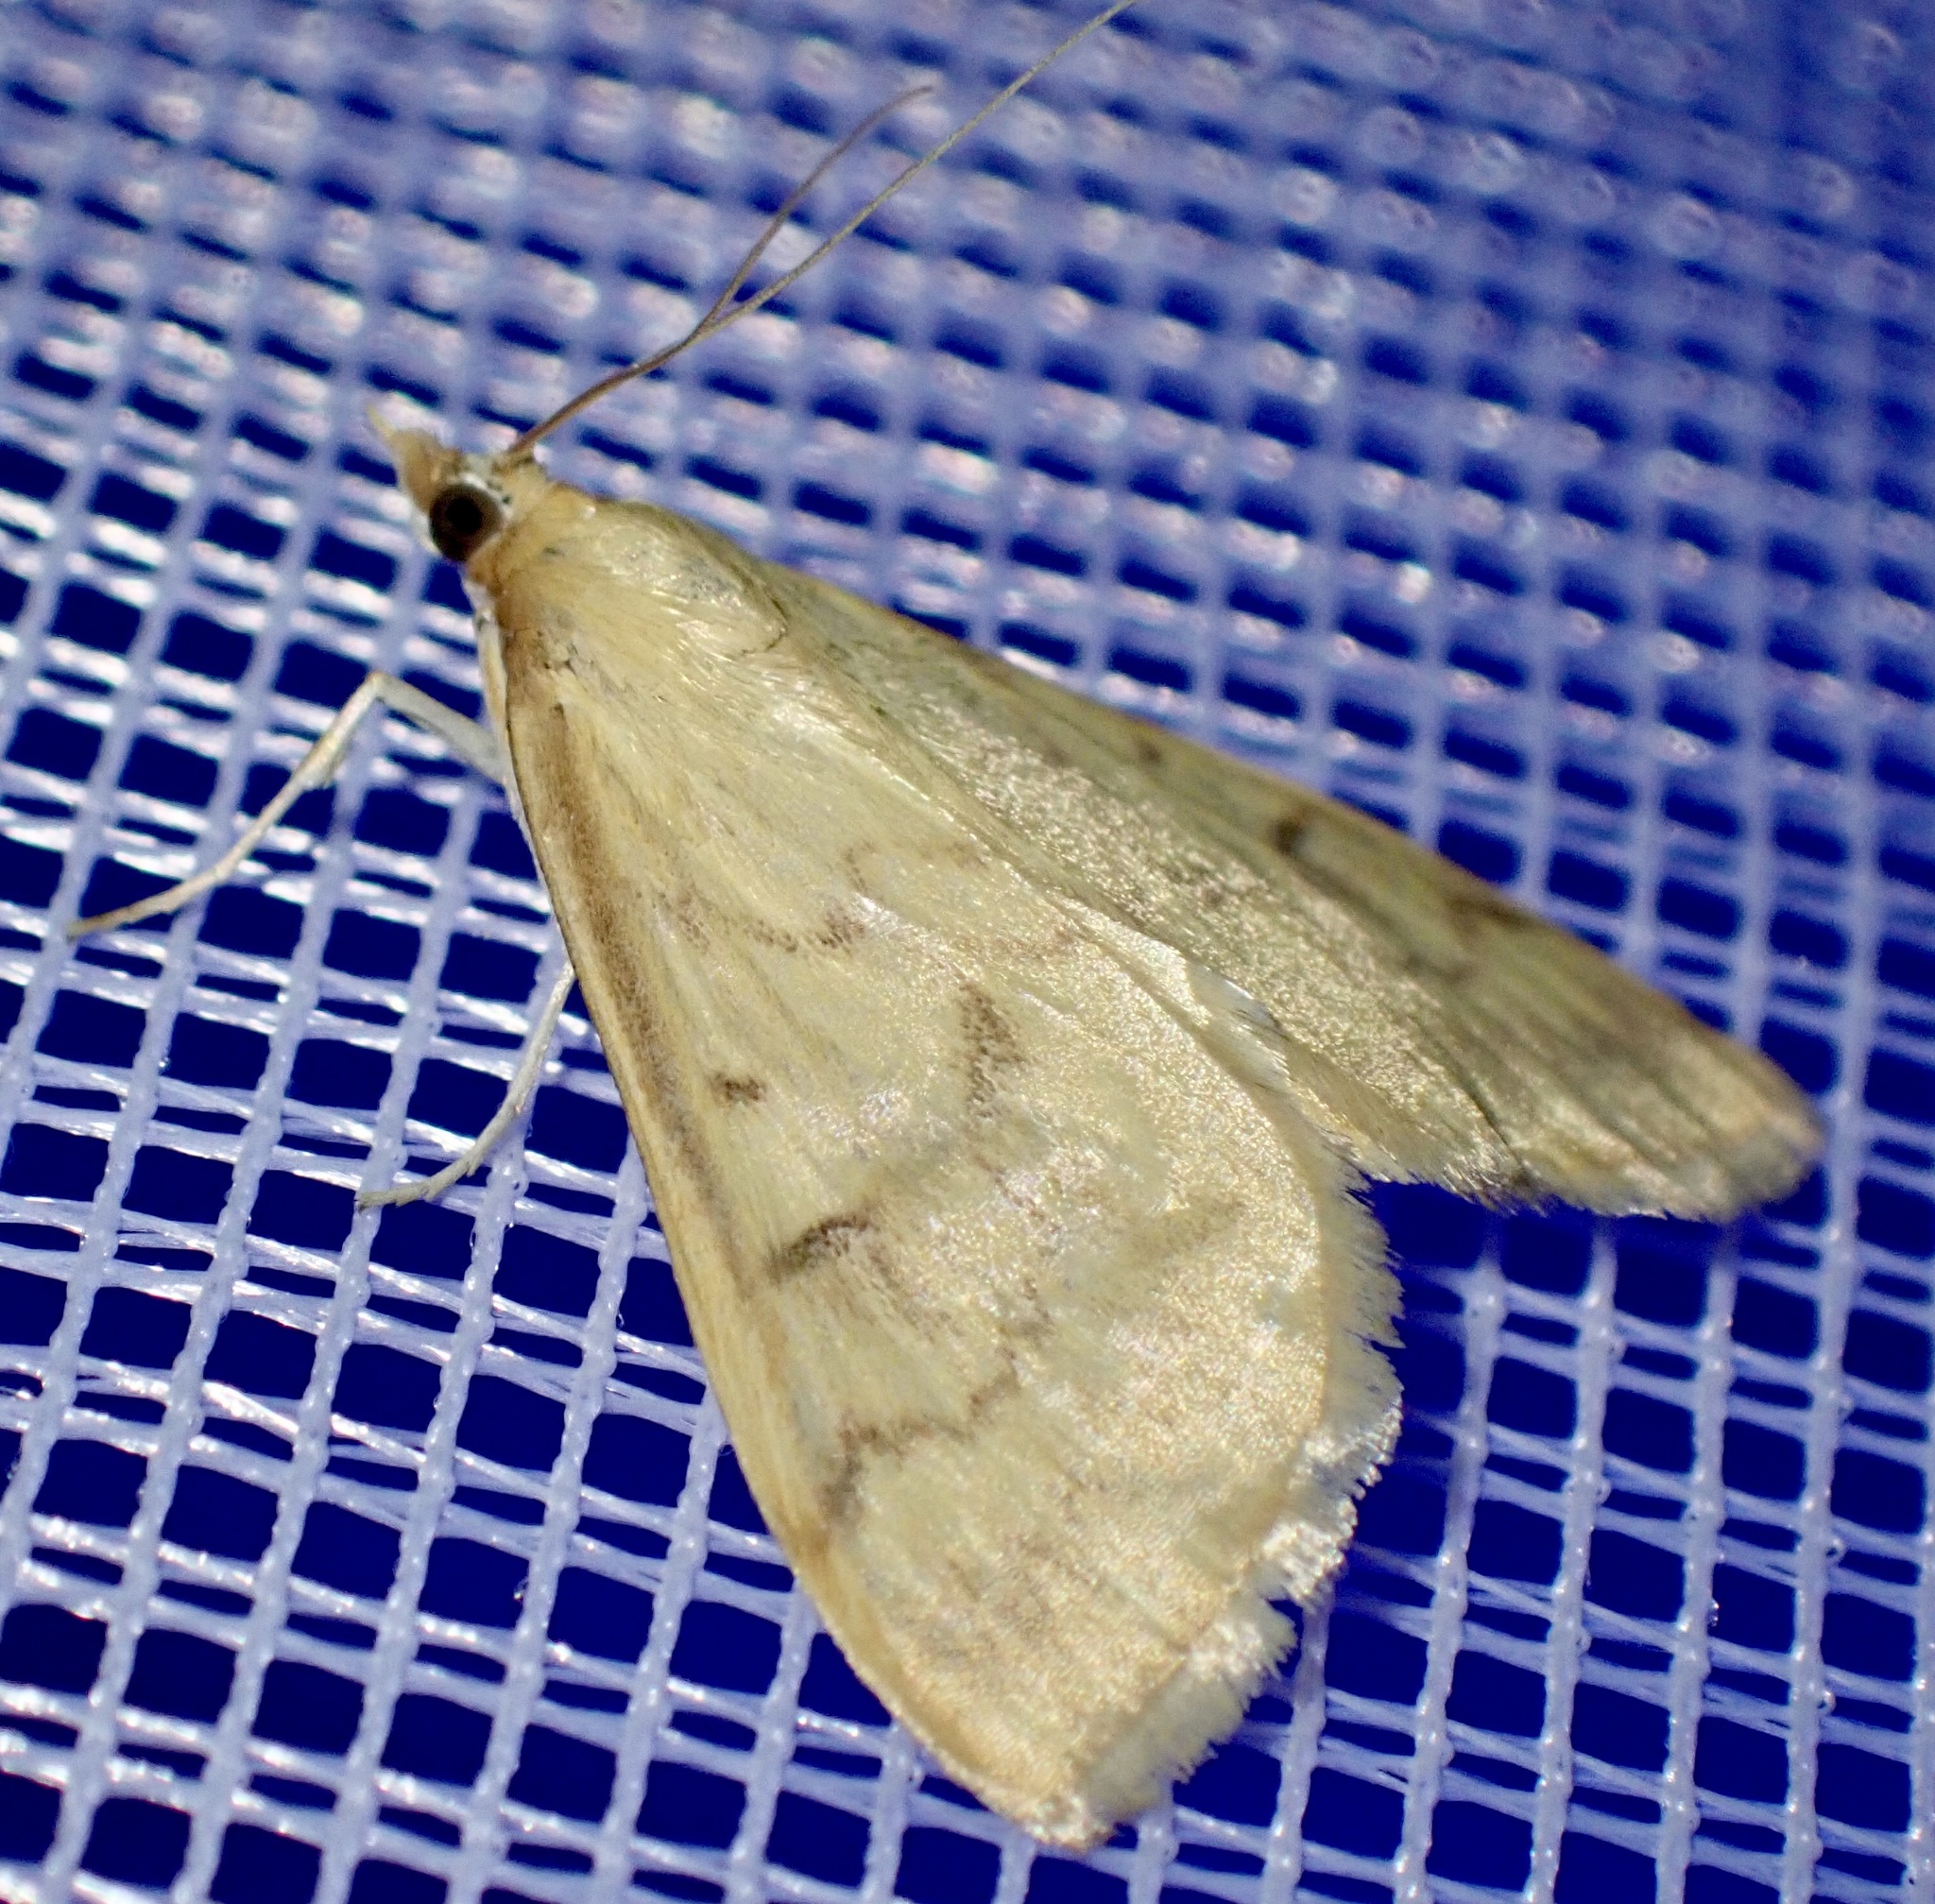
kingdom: Animalia
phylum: Arthropoda
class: Insecta
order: Lepidoptera
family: Crambidae
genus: Ostrinia
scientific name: Ostrinia nubilalis
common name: European corn borer
